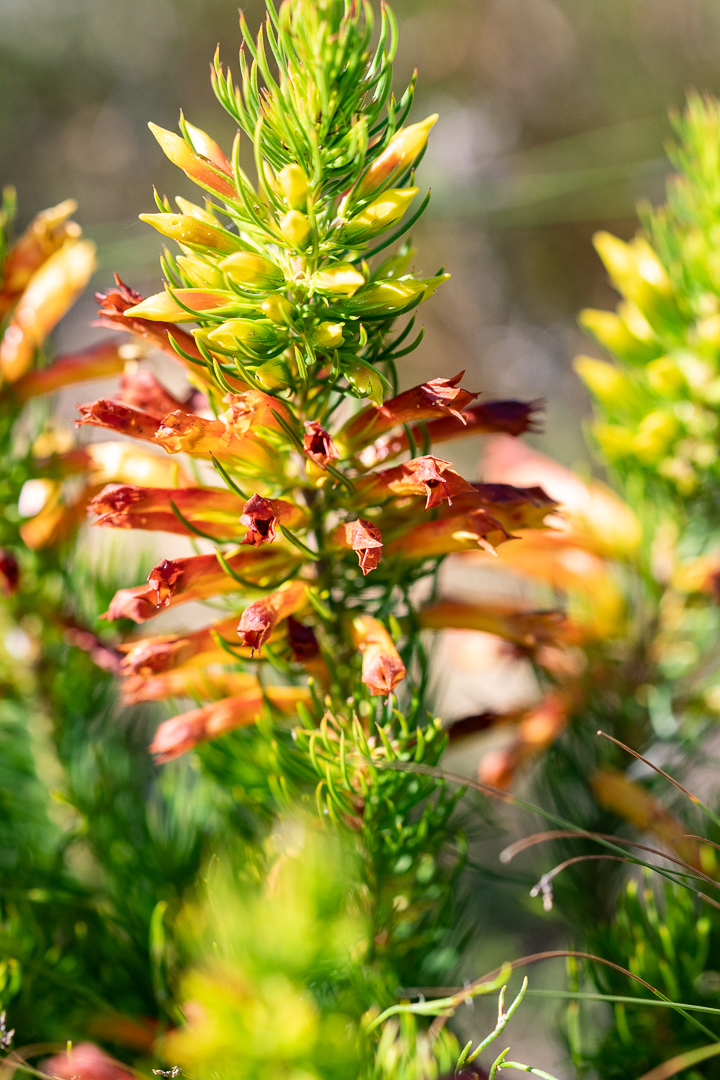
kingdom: Plantae
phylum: Tracheophyta
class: Magnoliopsida
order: Ericales
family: Ericaceae
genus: Erica
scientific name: Erica grandiflora
